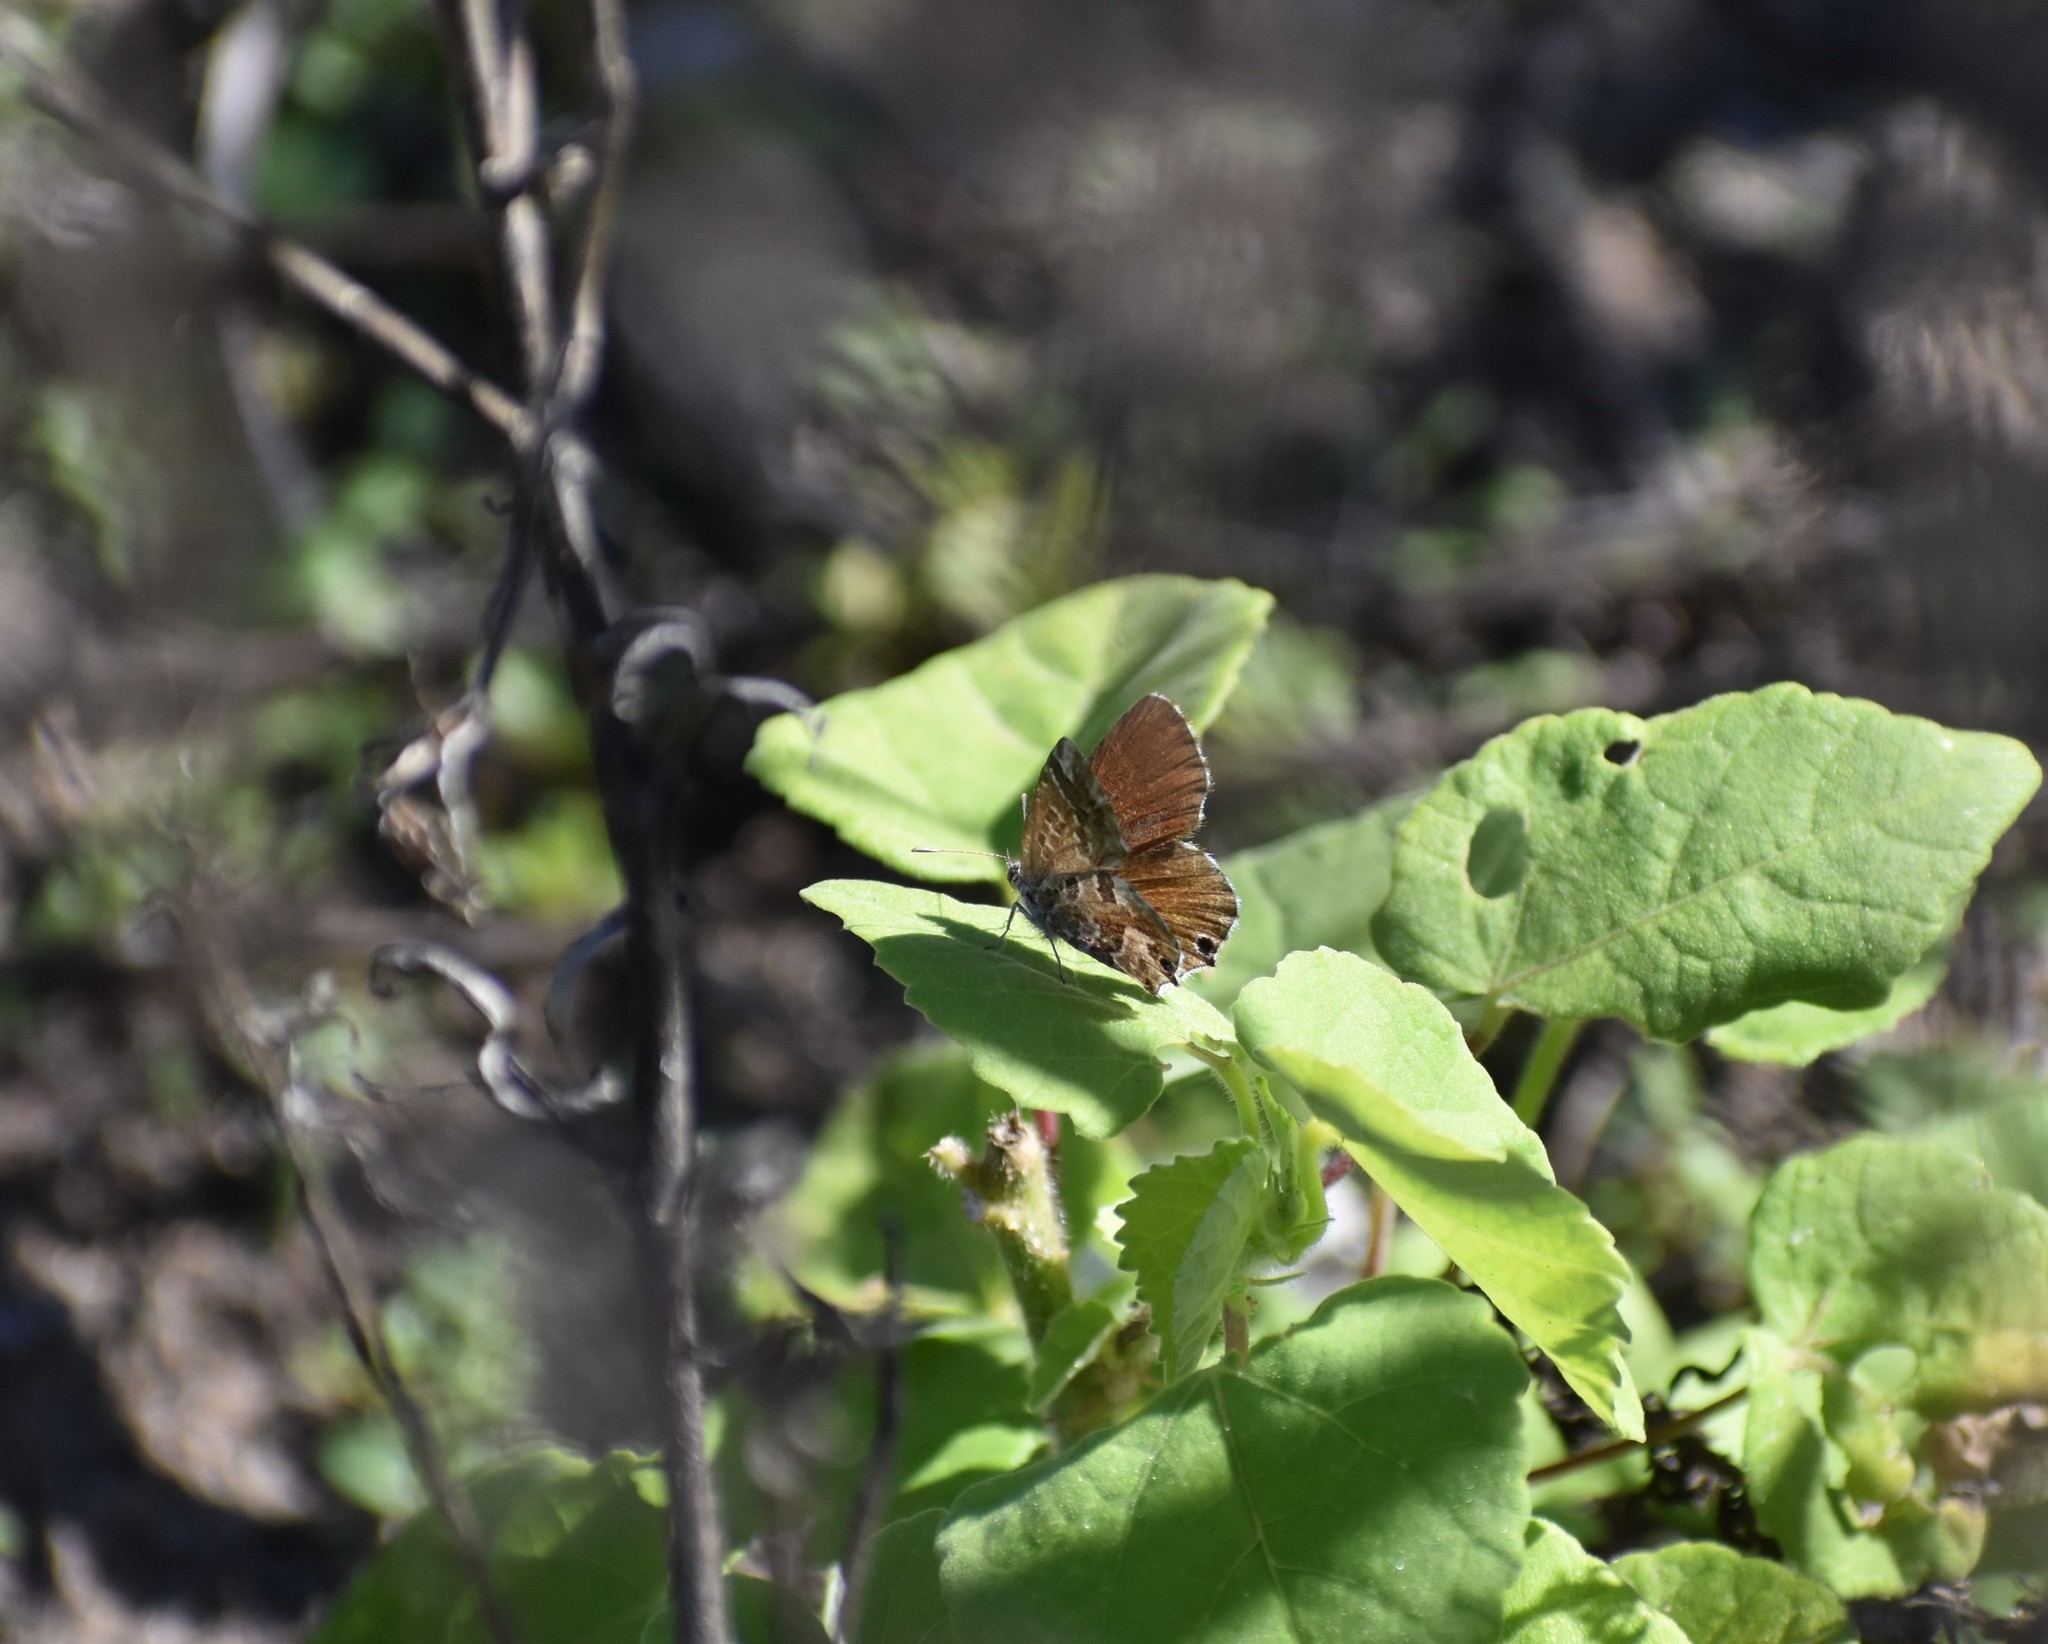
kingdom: Animalia
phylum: Arthropoda
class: Insecta
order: Lepidoptera
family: Lycaenidae
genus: Cacyreus
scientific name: Cacyreus marshalli
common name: Geranium bronze
